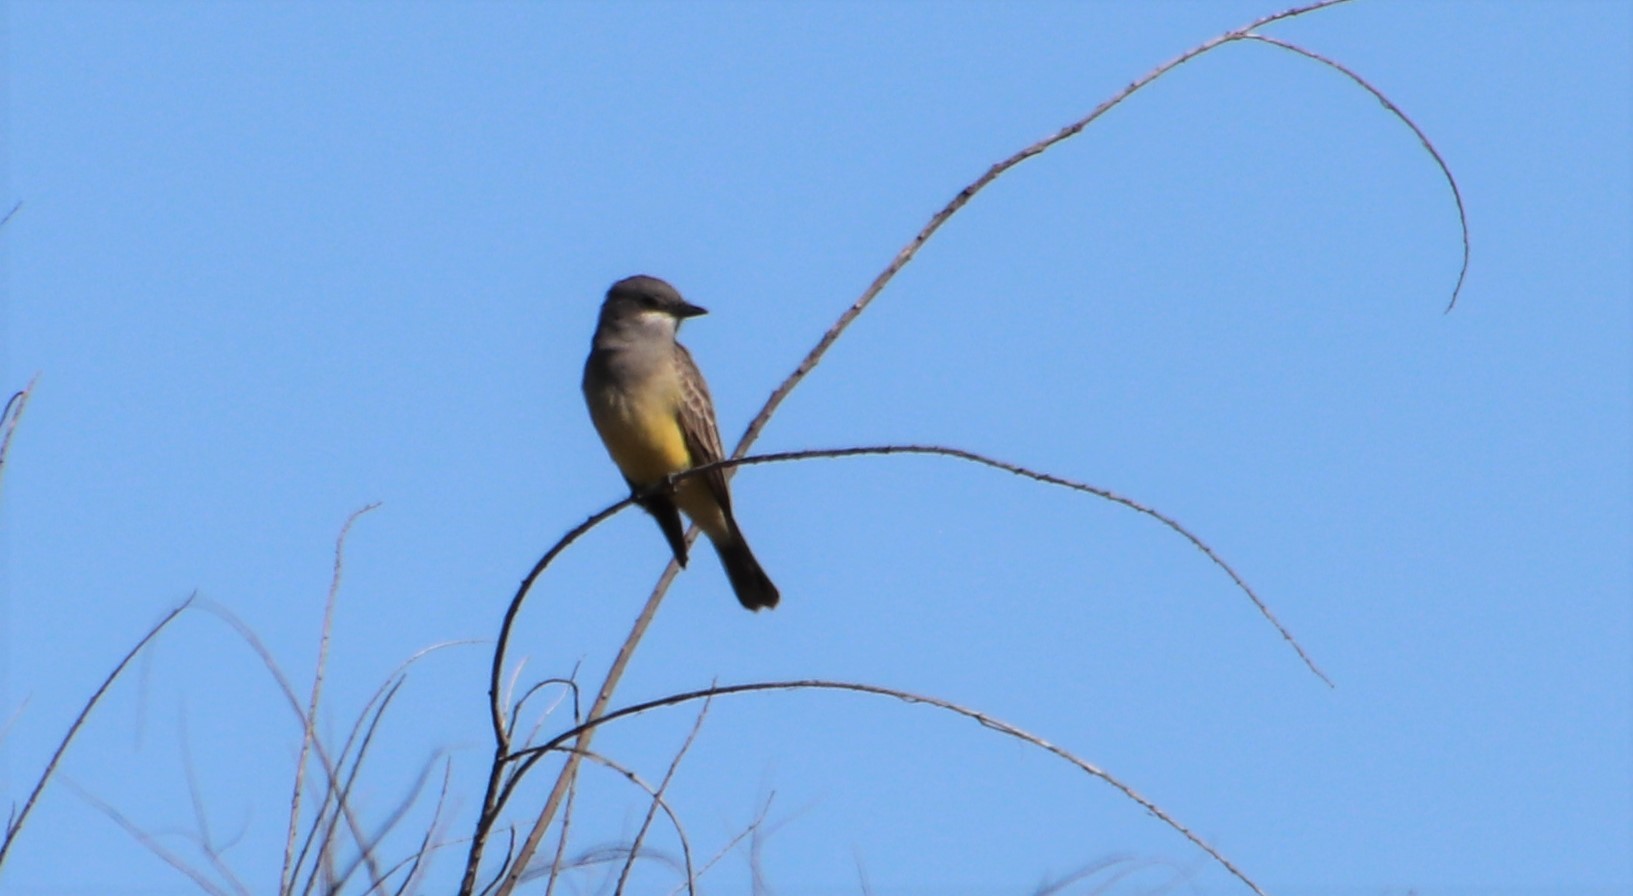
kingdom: Animalia
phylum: Chordata
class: Aves
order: Passeriformes
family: Tyrannidae
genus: Tyrannus
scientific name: Tyrannus vociferans
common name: Cassin's kingbird
